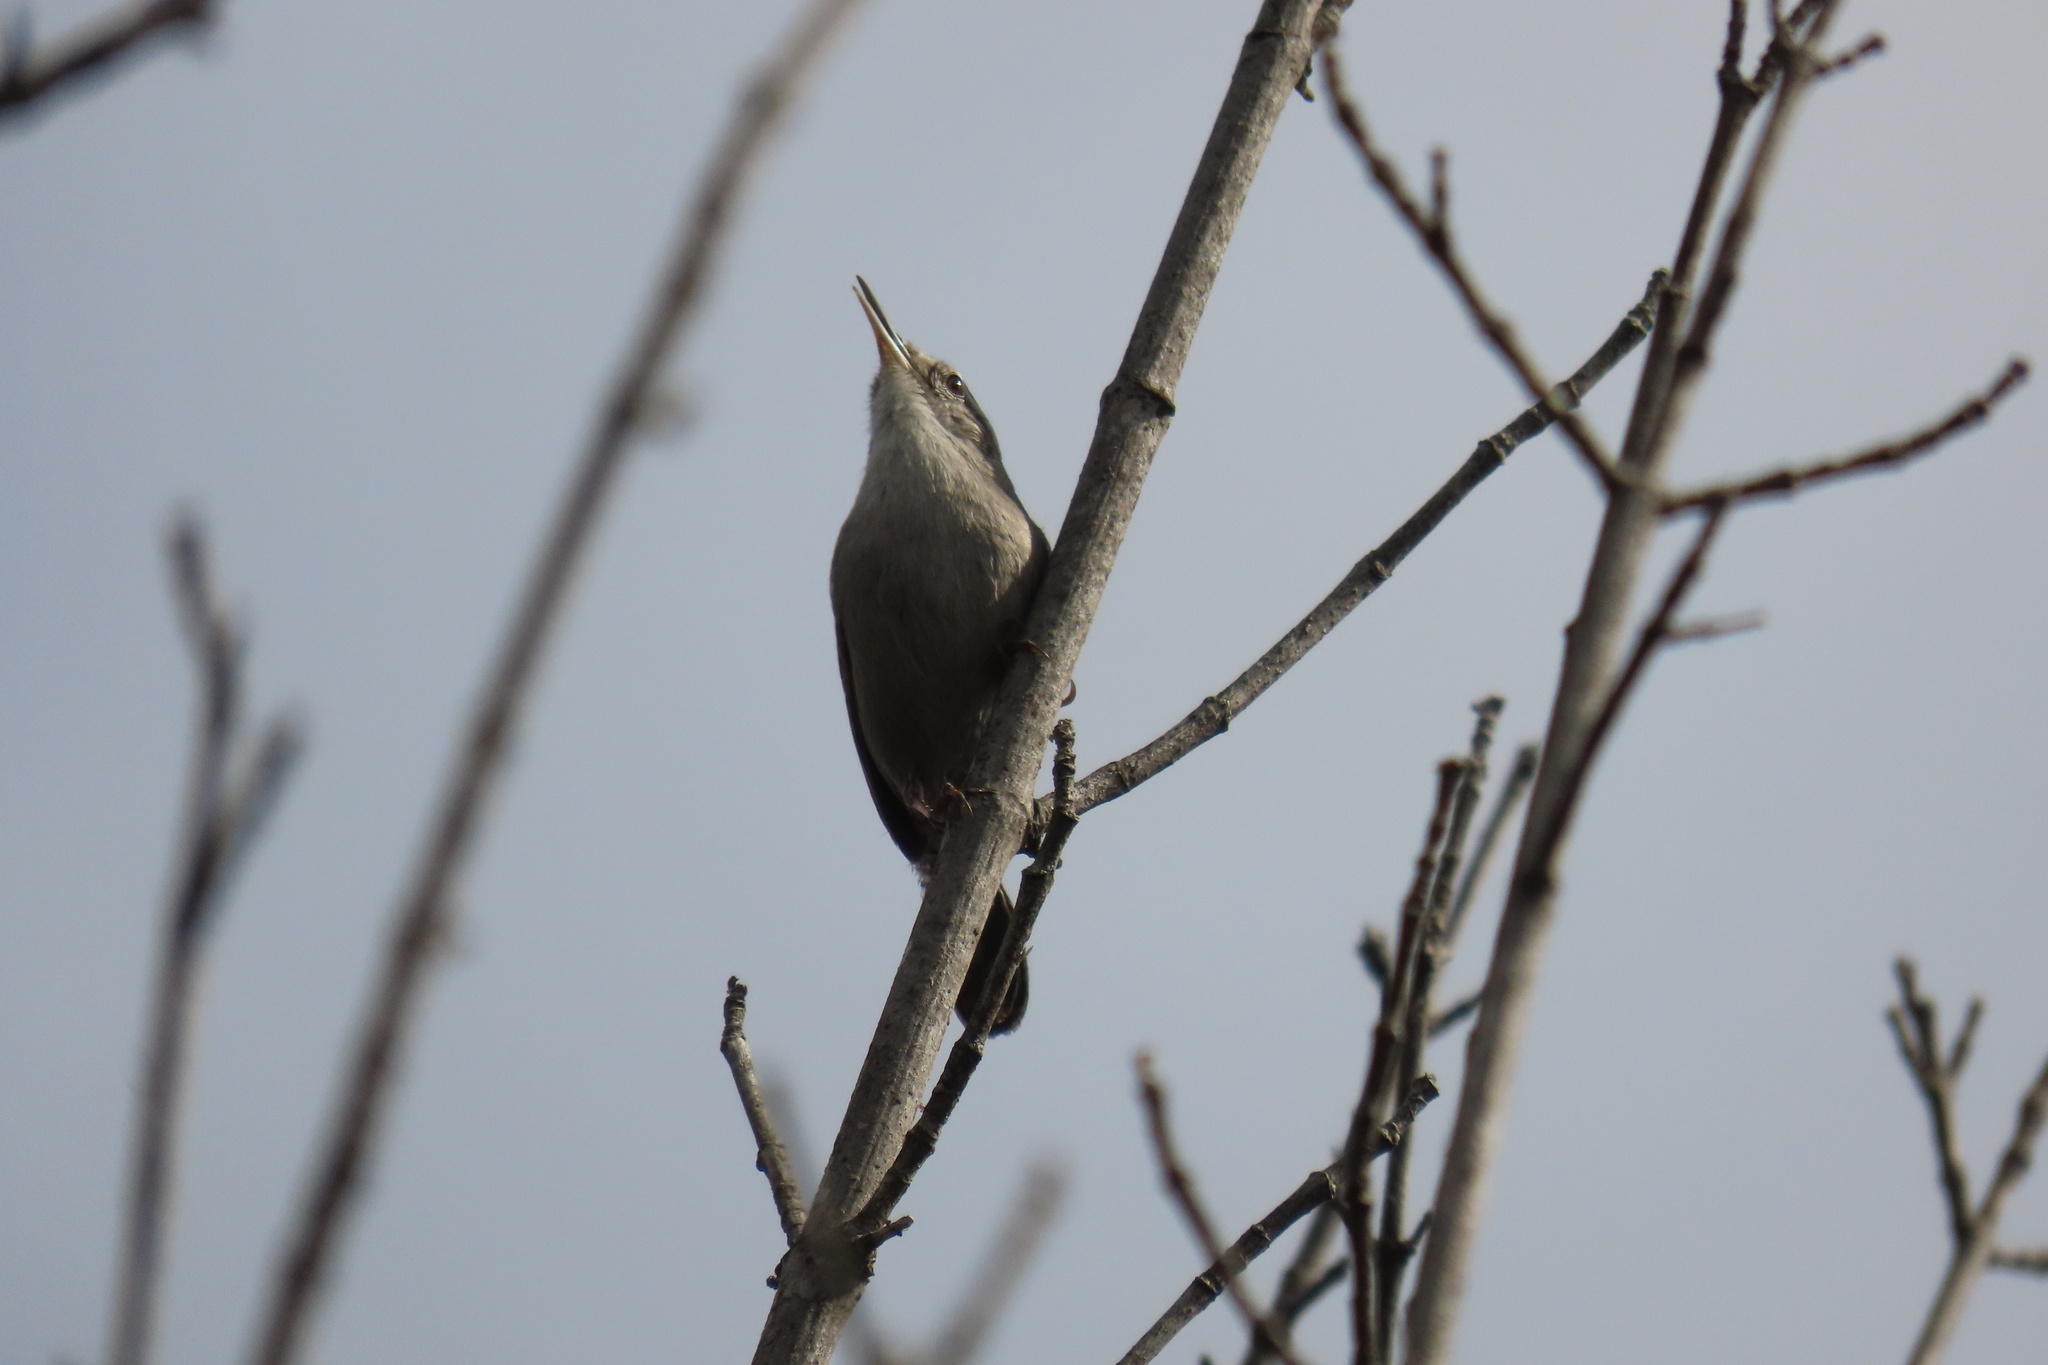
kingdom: Animalia
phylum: Chordata
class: Aves
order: Passeriformes
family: Troglodytidae
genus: Thryomanes
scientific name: Thryomanes bewickii
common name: Bewick's wren
